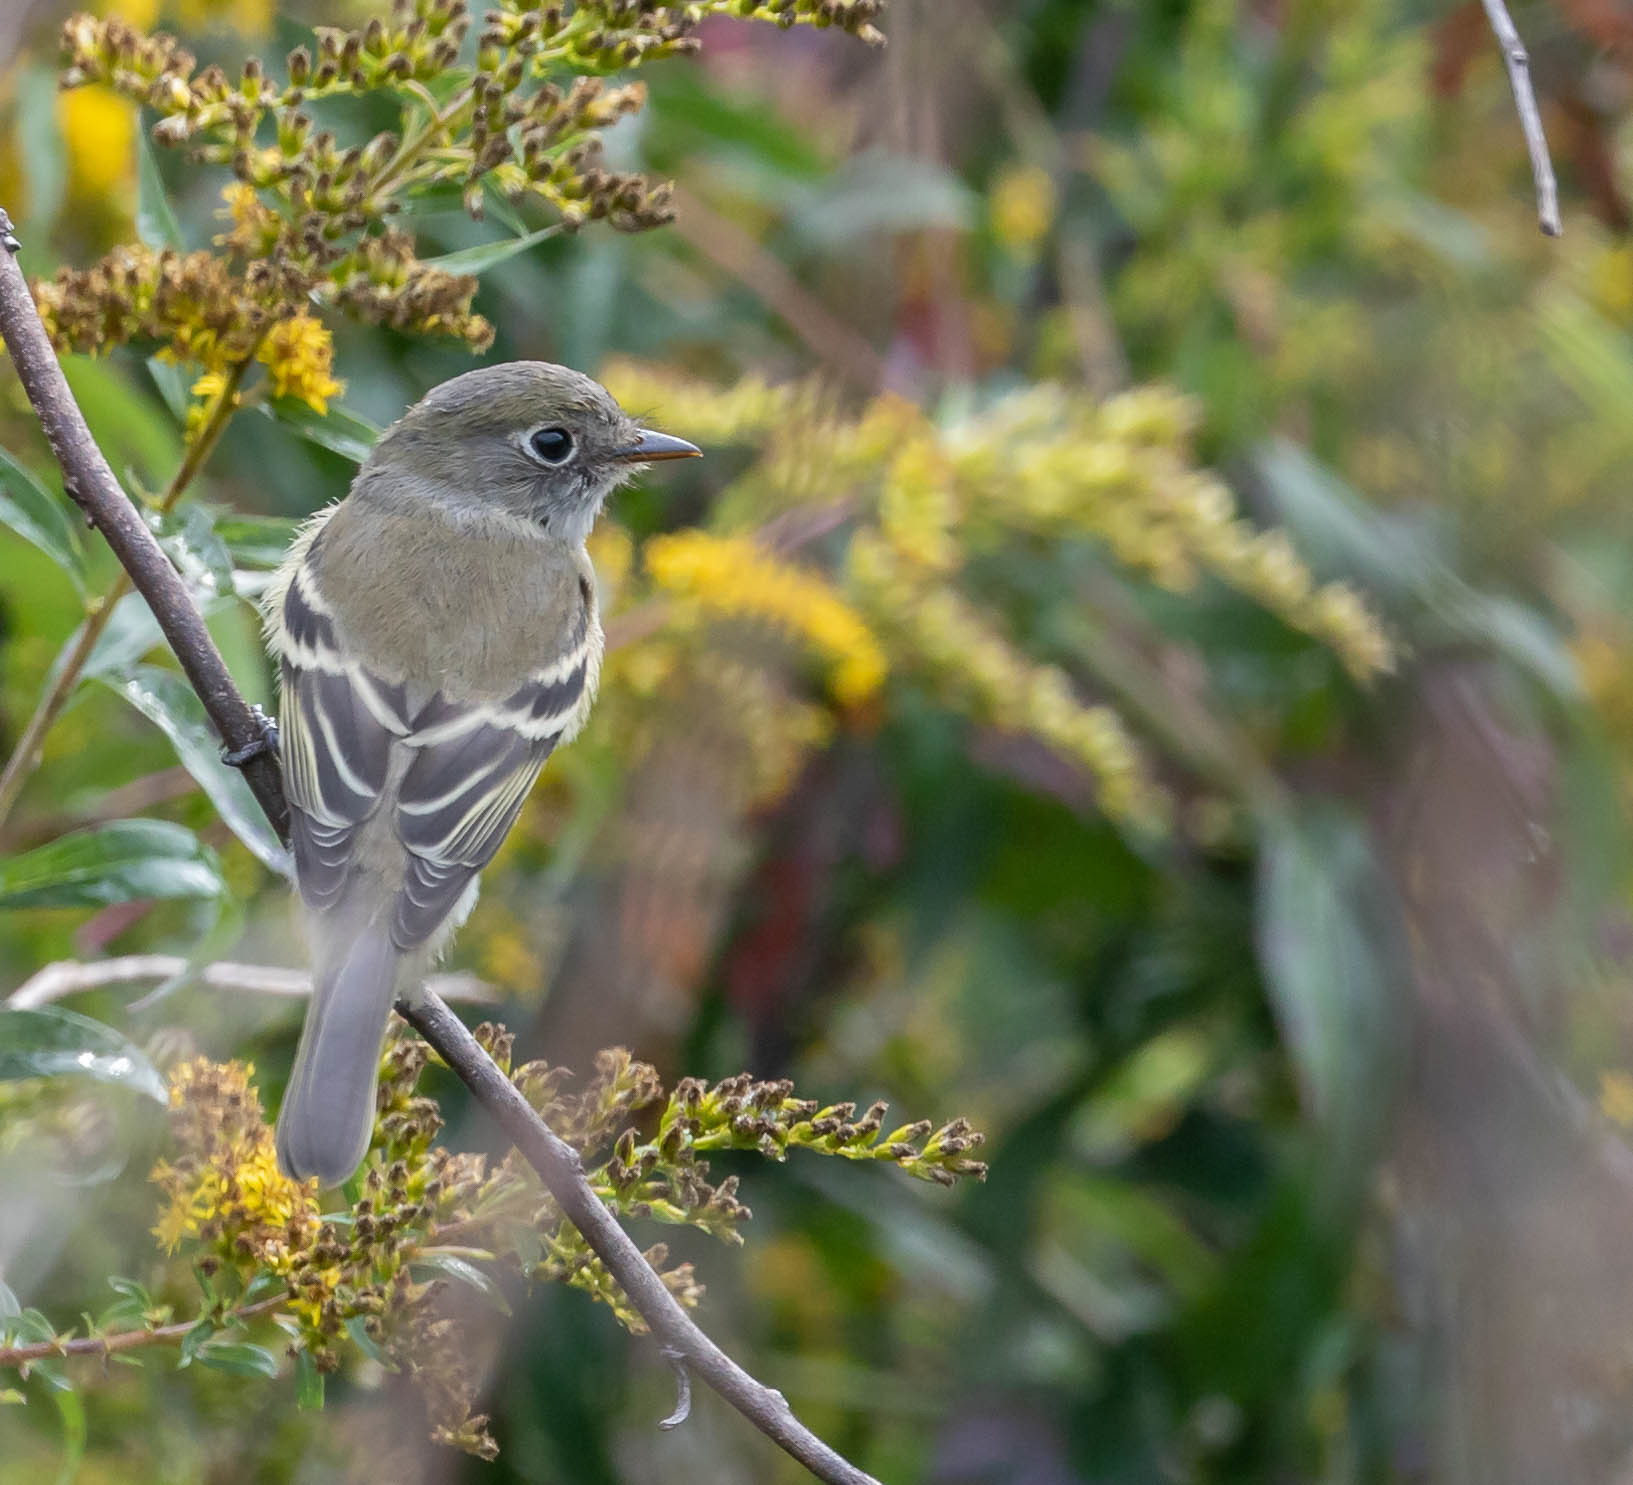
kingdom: Animalia
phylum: Chordata
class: Aves
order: Passeriformes
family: Tyrannidae
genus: Empidonax
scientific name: Empidonax minimus
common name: Least flycatcher
